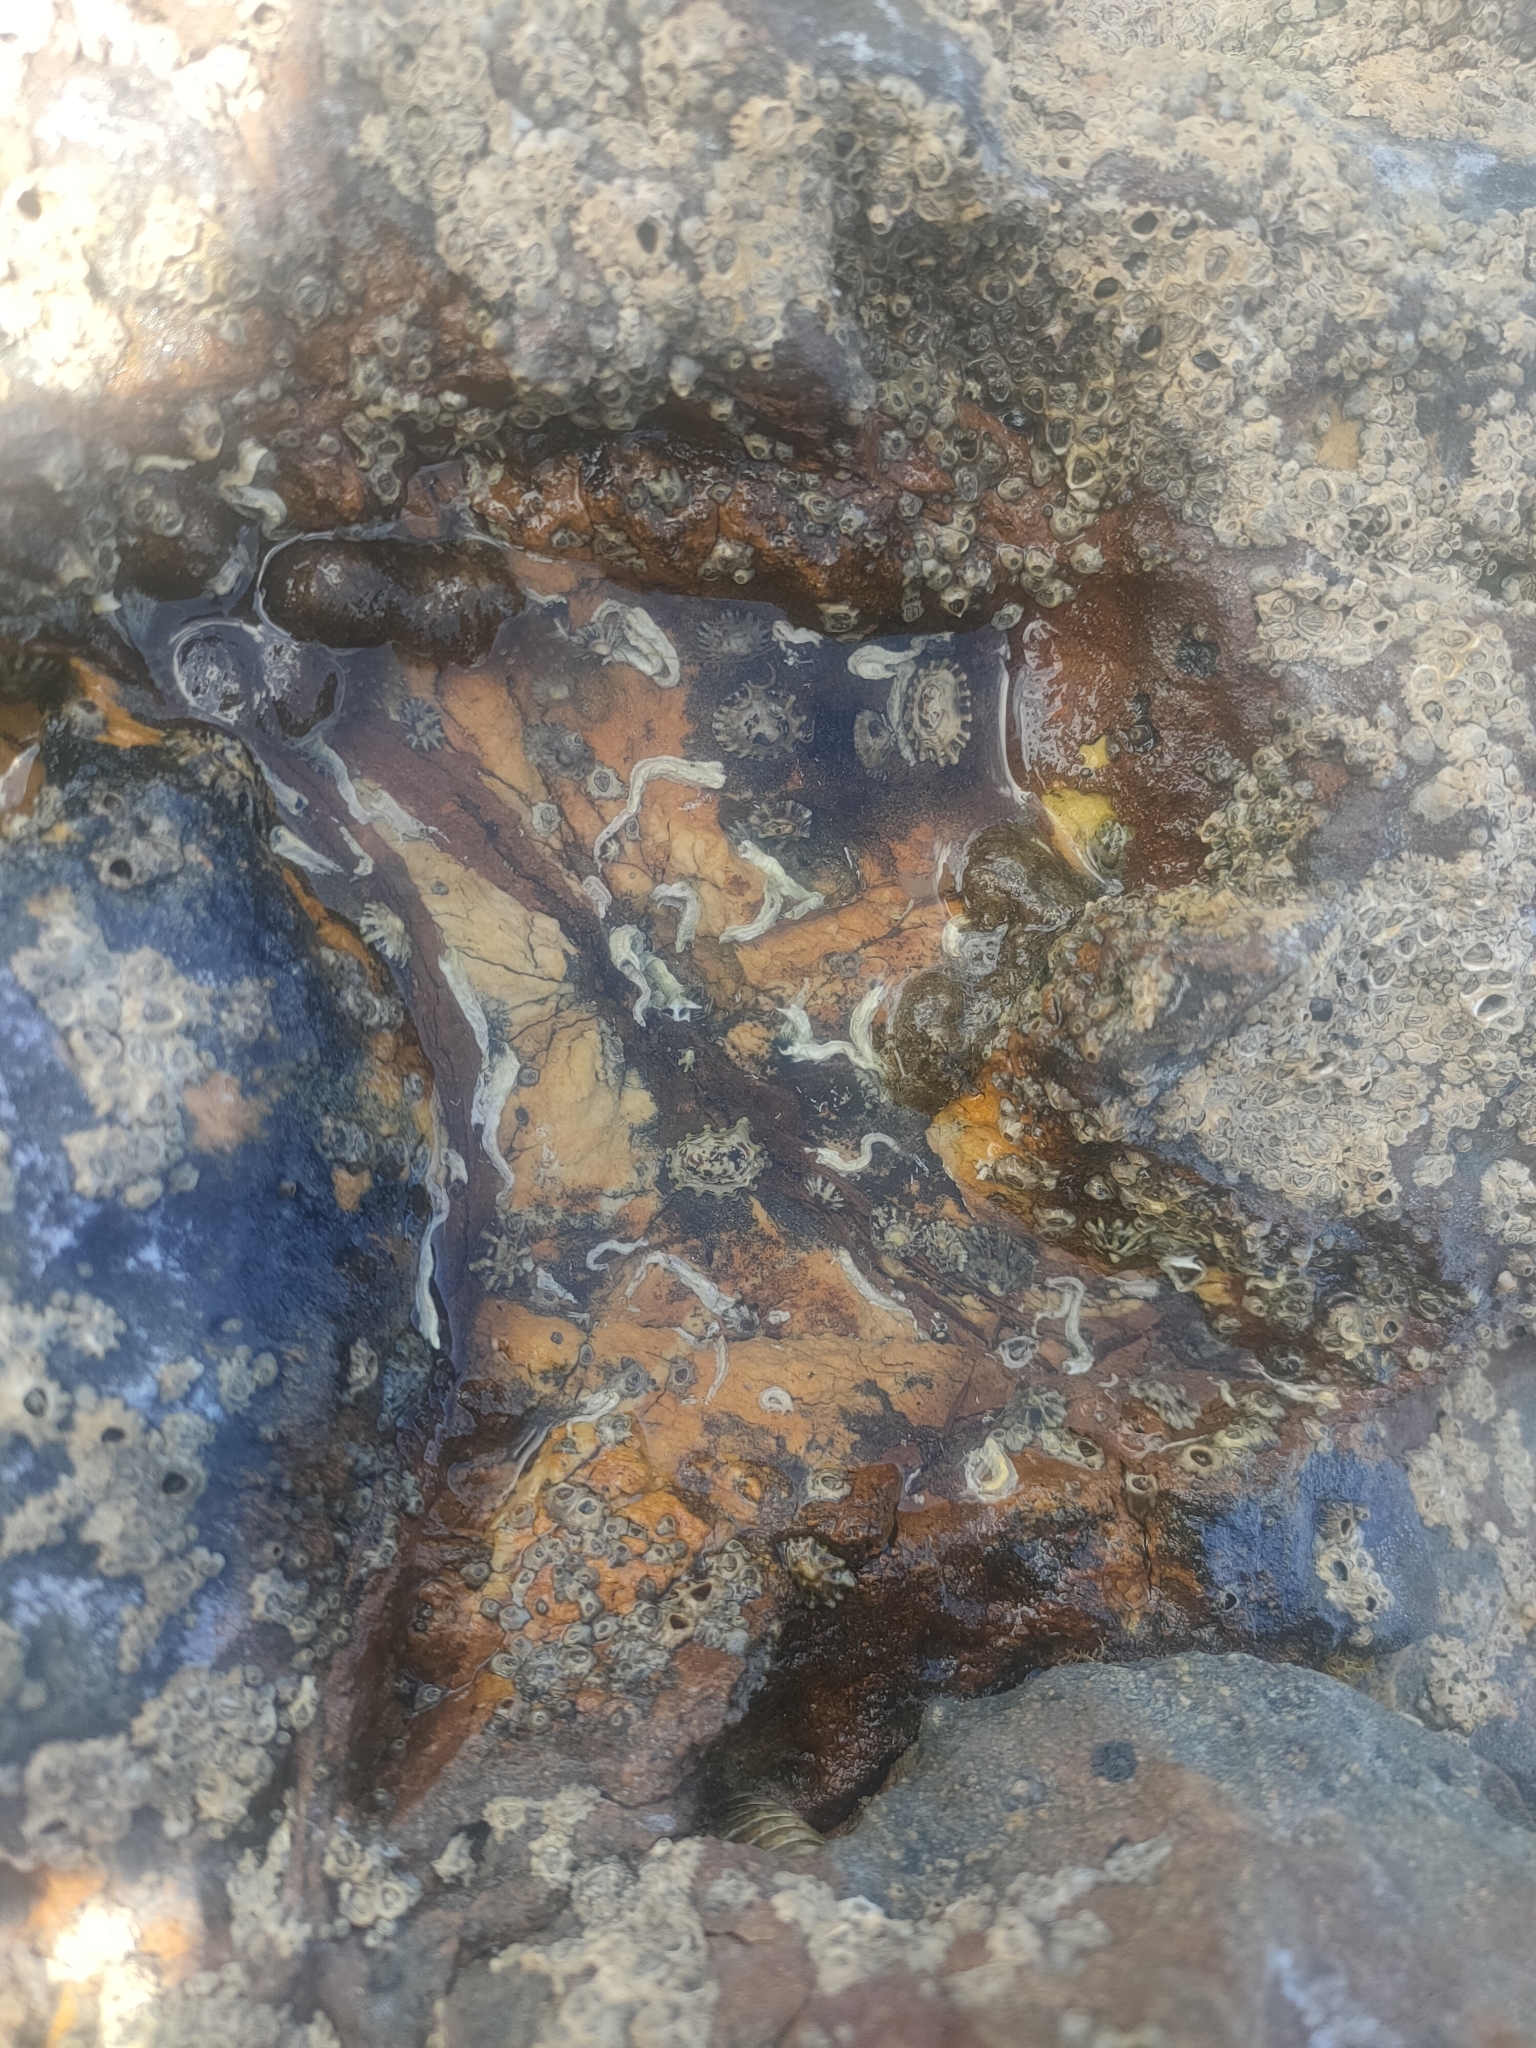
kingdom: Animalia
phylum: Mollusca
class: Gastropoda
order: Siphonariida
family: Siphonariidae
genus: Siphonaria
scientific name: Siphonaria australis
